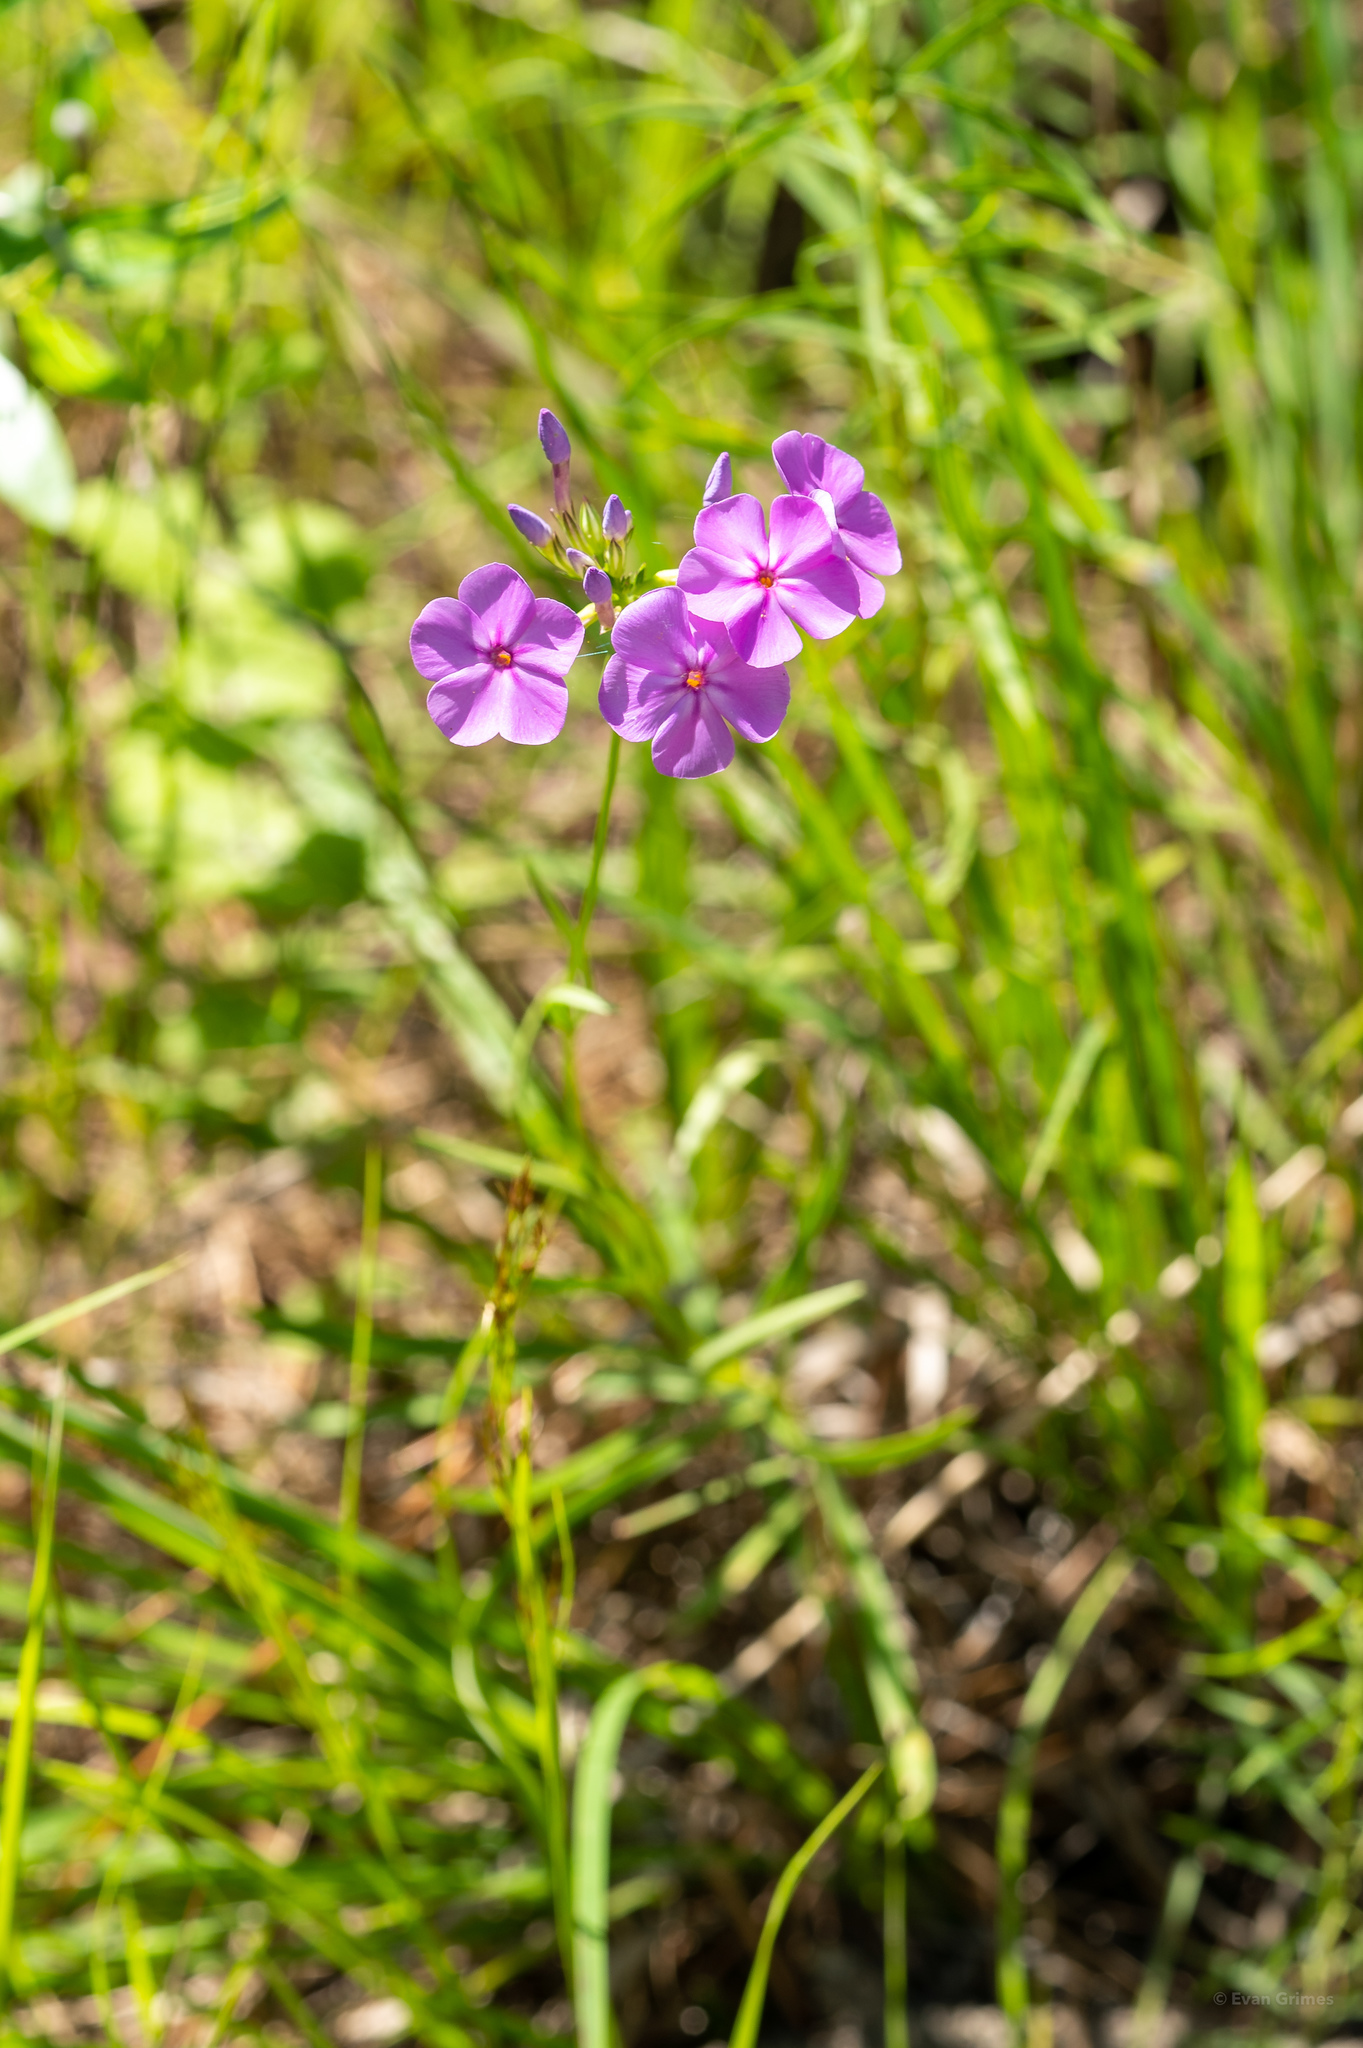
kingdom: Plantae
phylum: Tracheophyta
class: Magnoliopsida
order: Ericales
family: Polemoniaceae
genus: Phlox
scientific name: Phlox carolina
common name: Thick-leaf phlox
